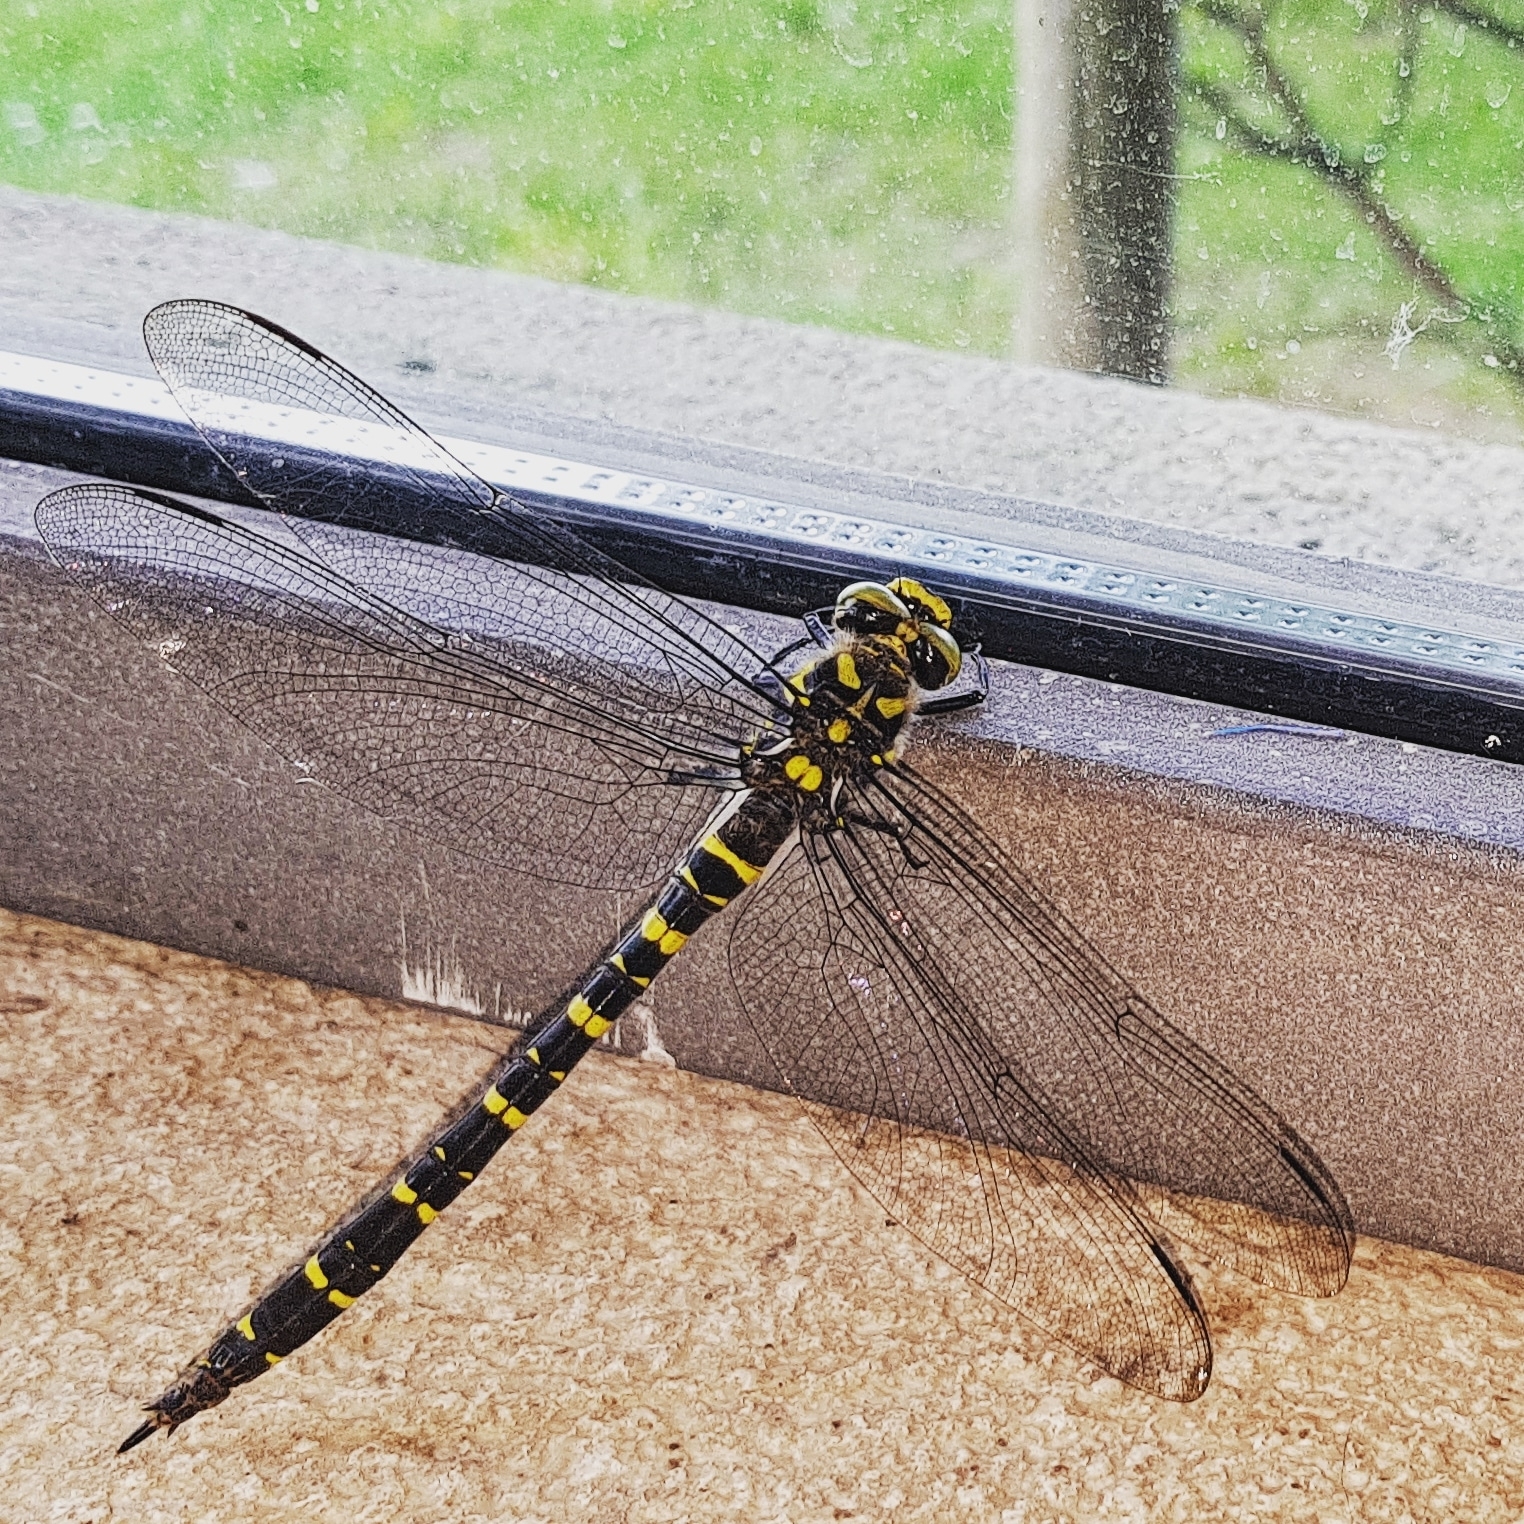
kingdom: Animalia
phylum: Arthropoda
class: Insecta
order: Odonata
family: Cordulegastridae
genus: Cordulegaster
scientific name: Cordulegaster bidentata
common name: Sombre goldenring
